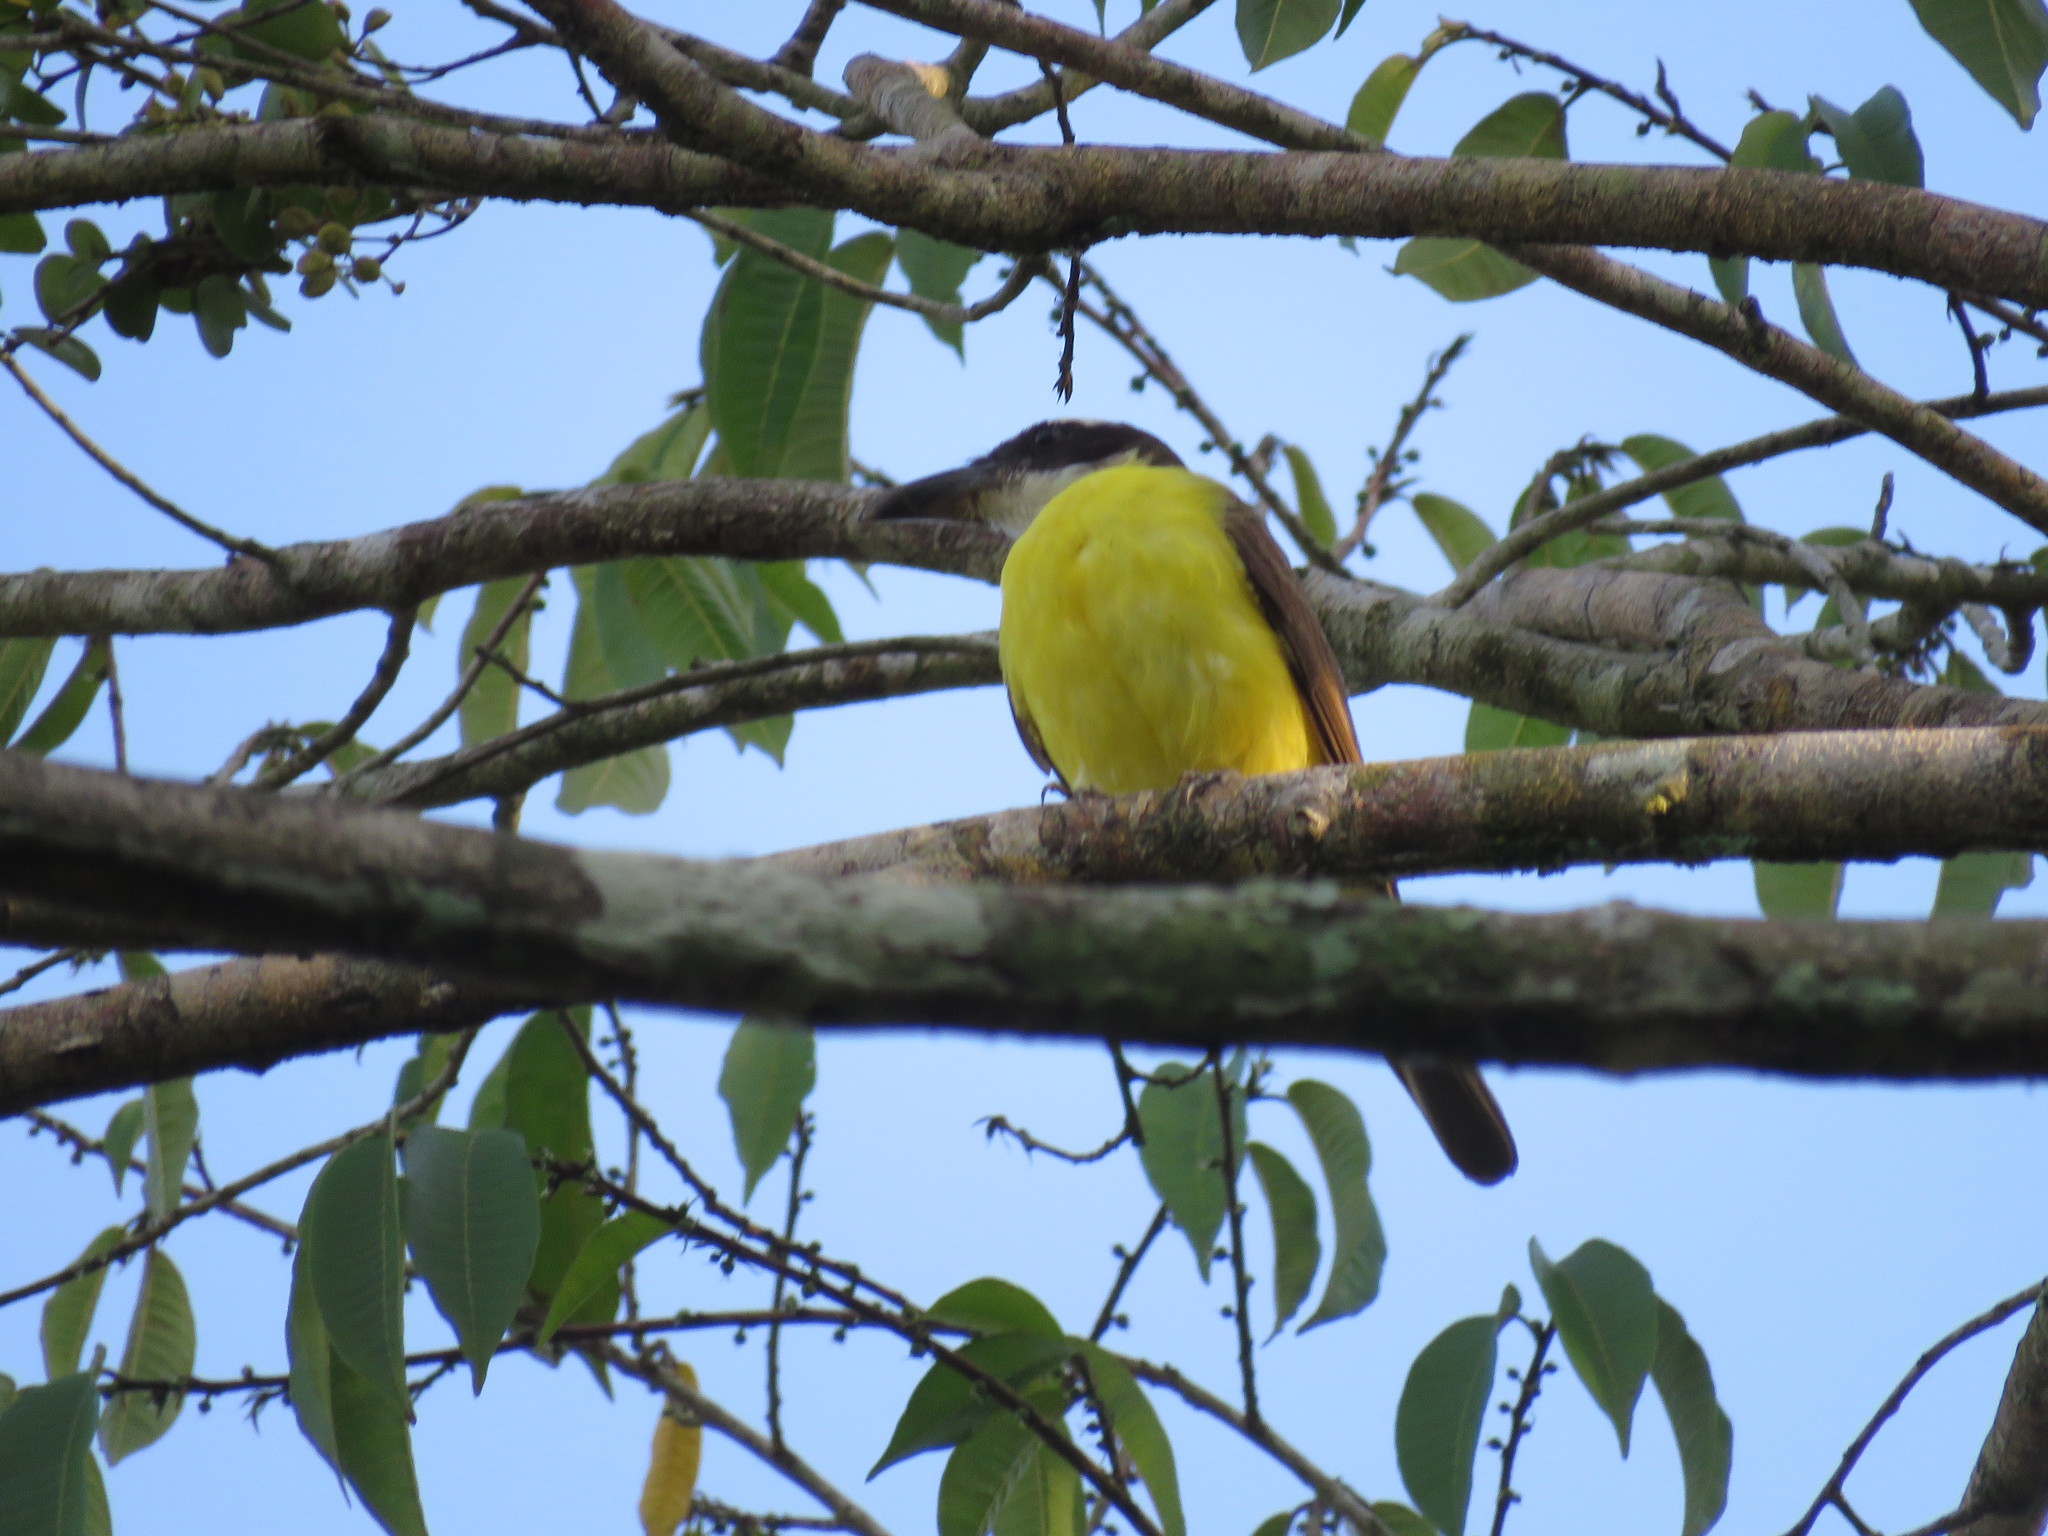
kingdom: Animalia
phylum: Chordata
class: Aves
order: Passeriformes
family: Tyrannidae
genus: Megarynchus
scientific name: Megarynchus pitangua
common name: Boat-billed flycatcher
